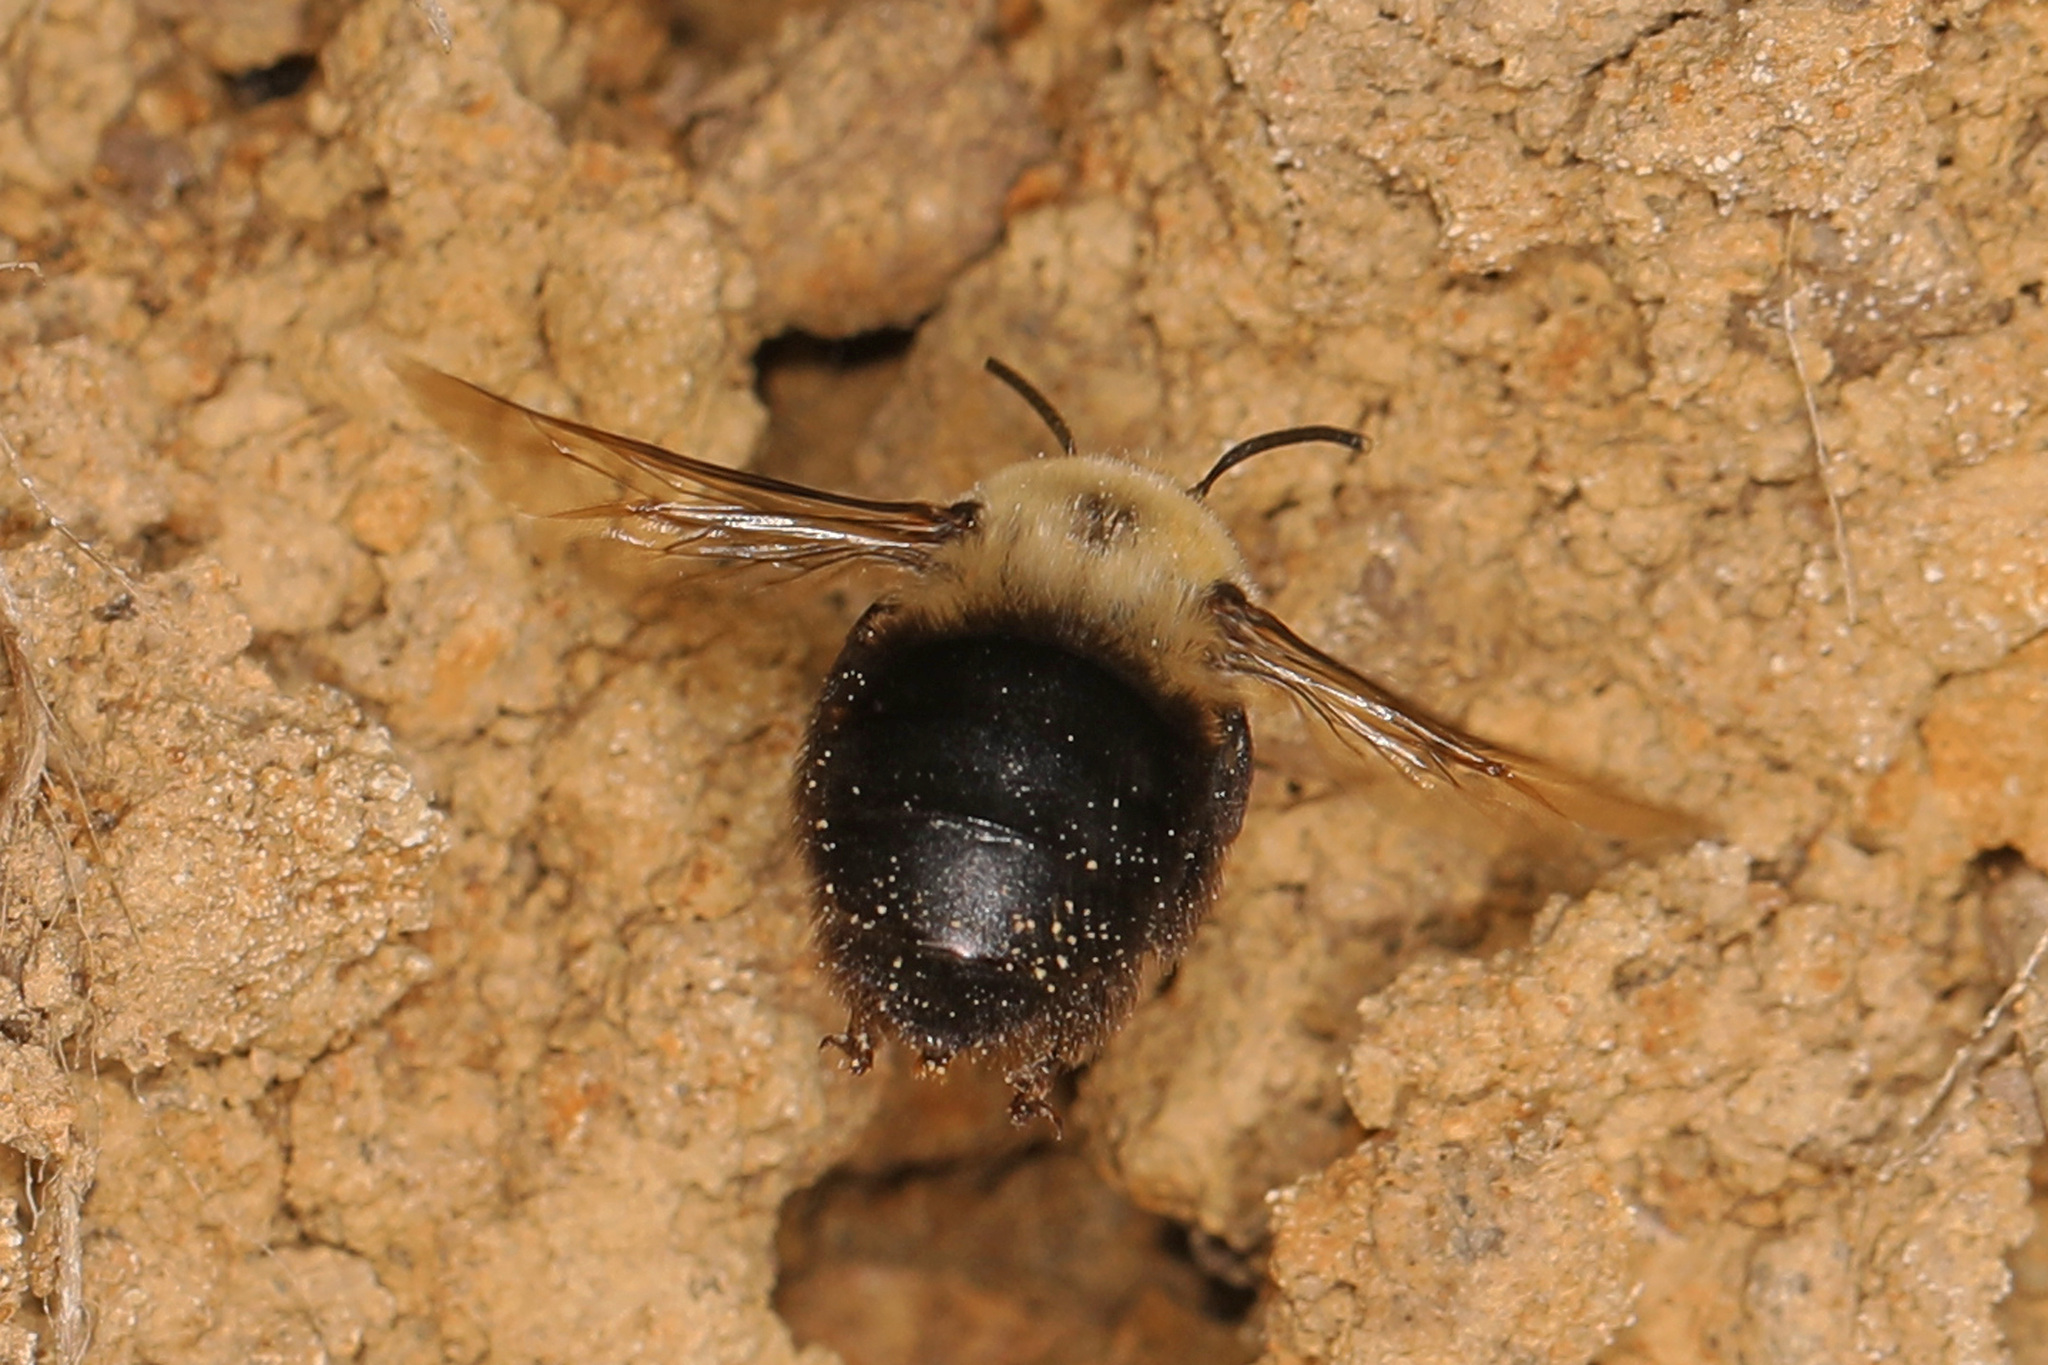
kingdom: Animalia
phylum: Arthropoda
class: Insecta
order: Hymenoptera
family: Apidae
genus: Anthophora
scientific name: Anthophora abrupta
